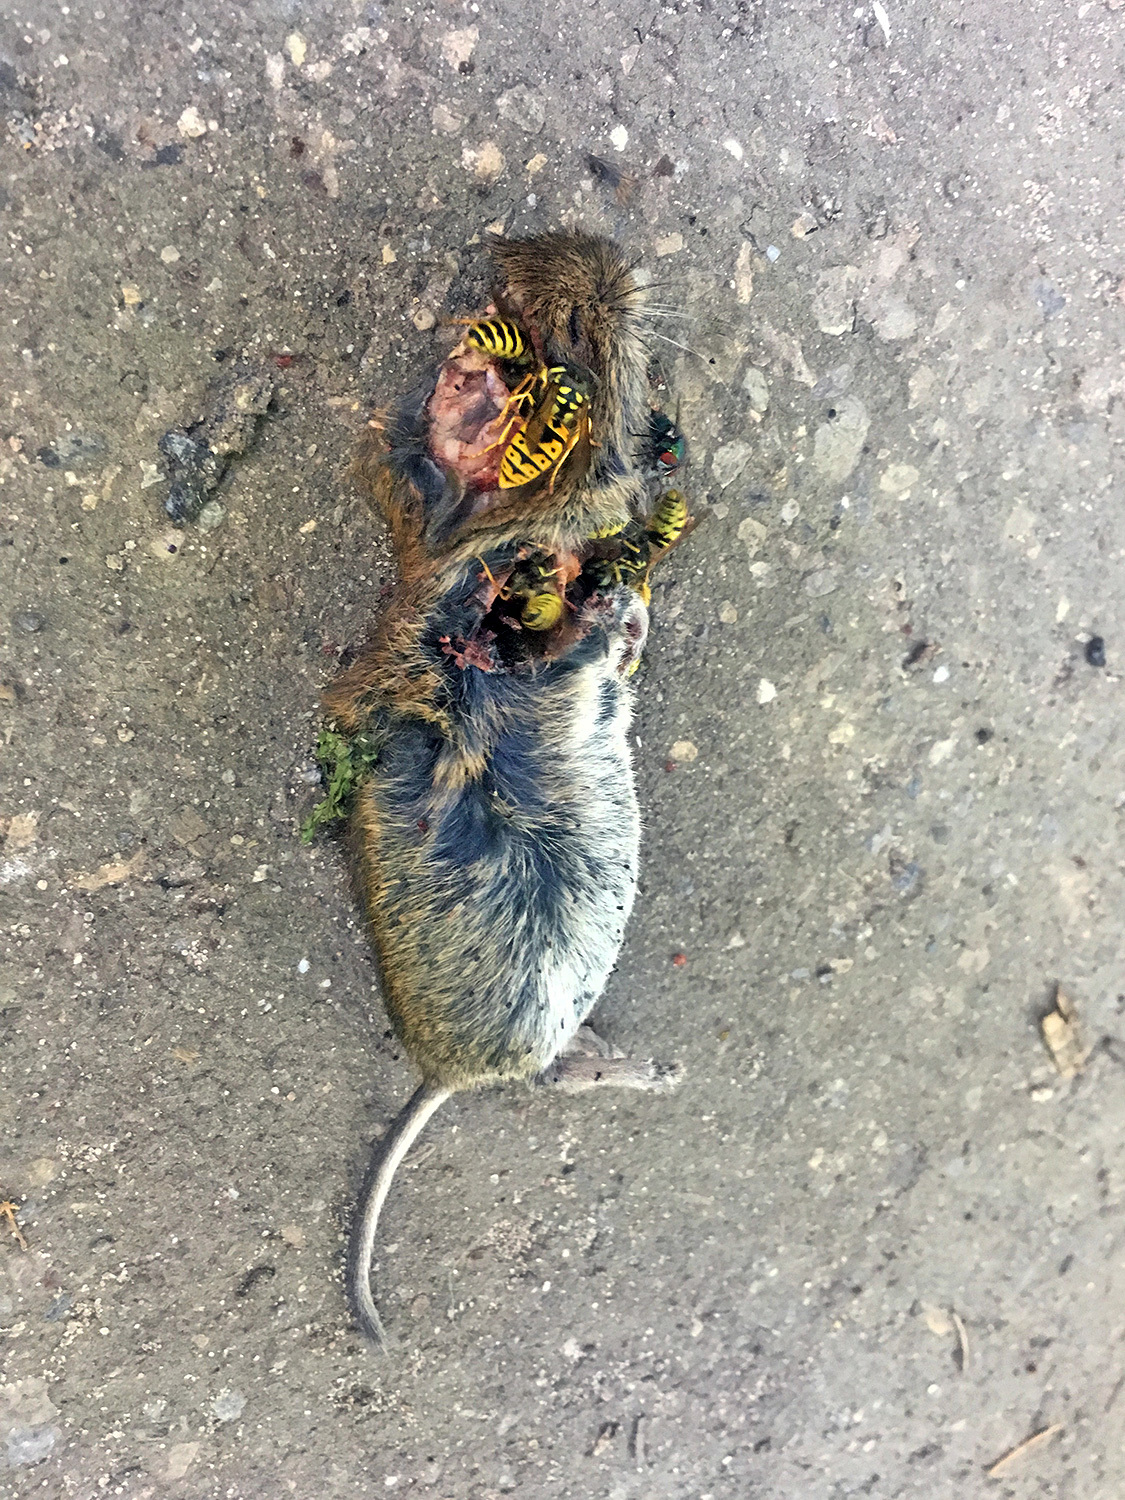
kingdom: Animalia
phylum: Chordata
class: Mammalia
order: Rodentia
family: Cricetidae
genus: Myodes
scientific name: Myodes glareolus
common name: Bank vole
